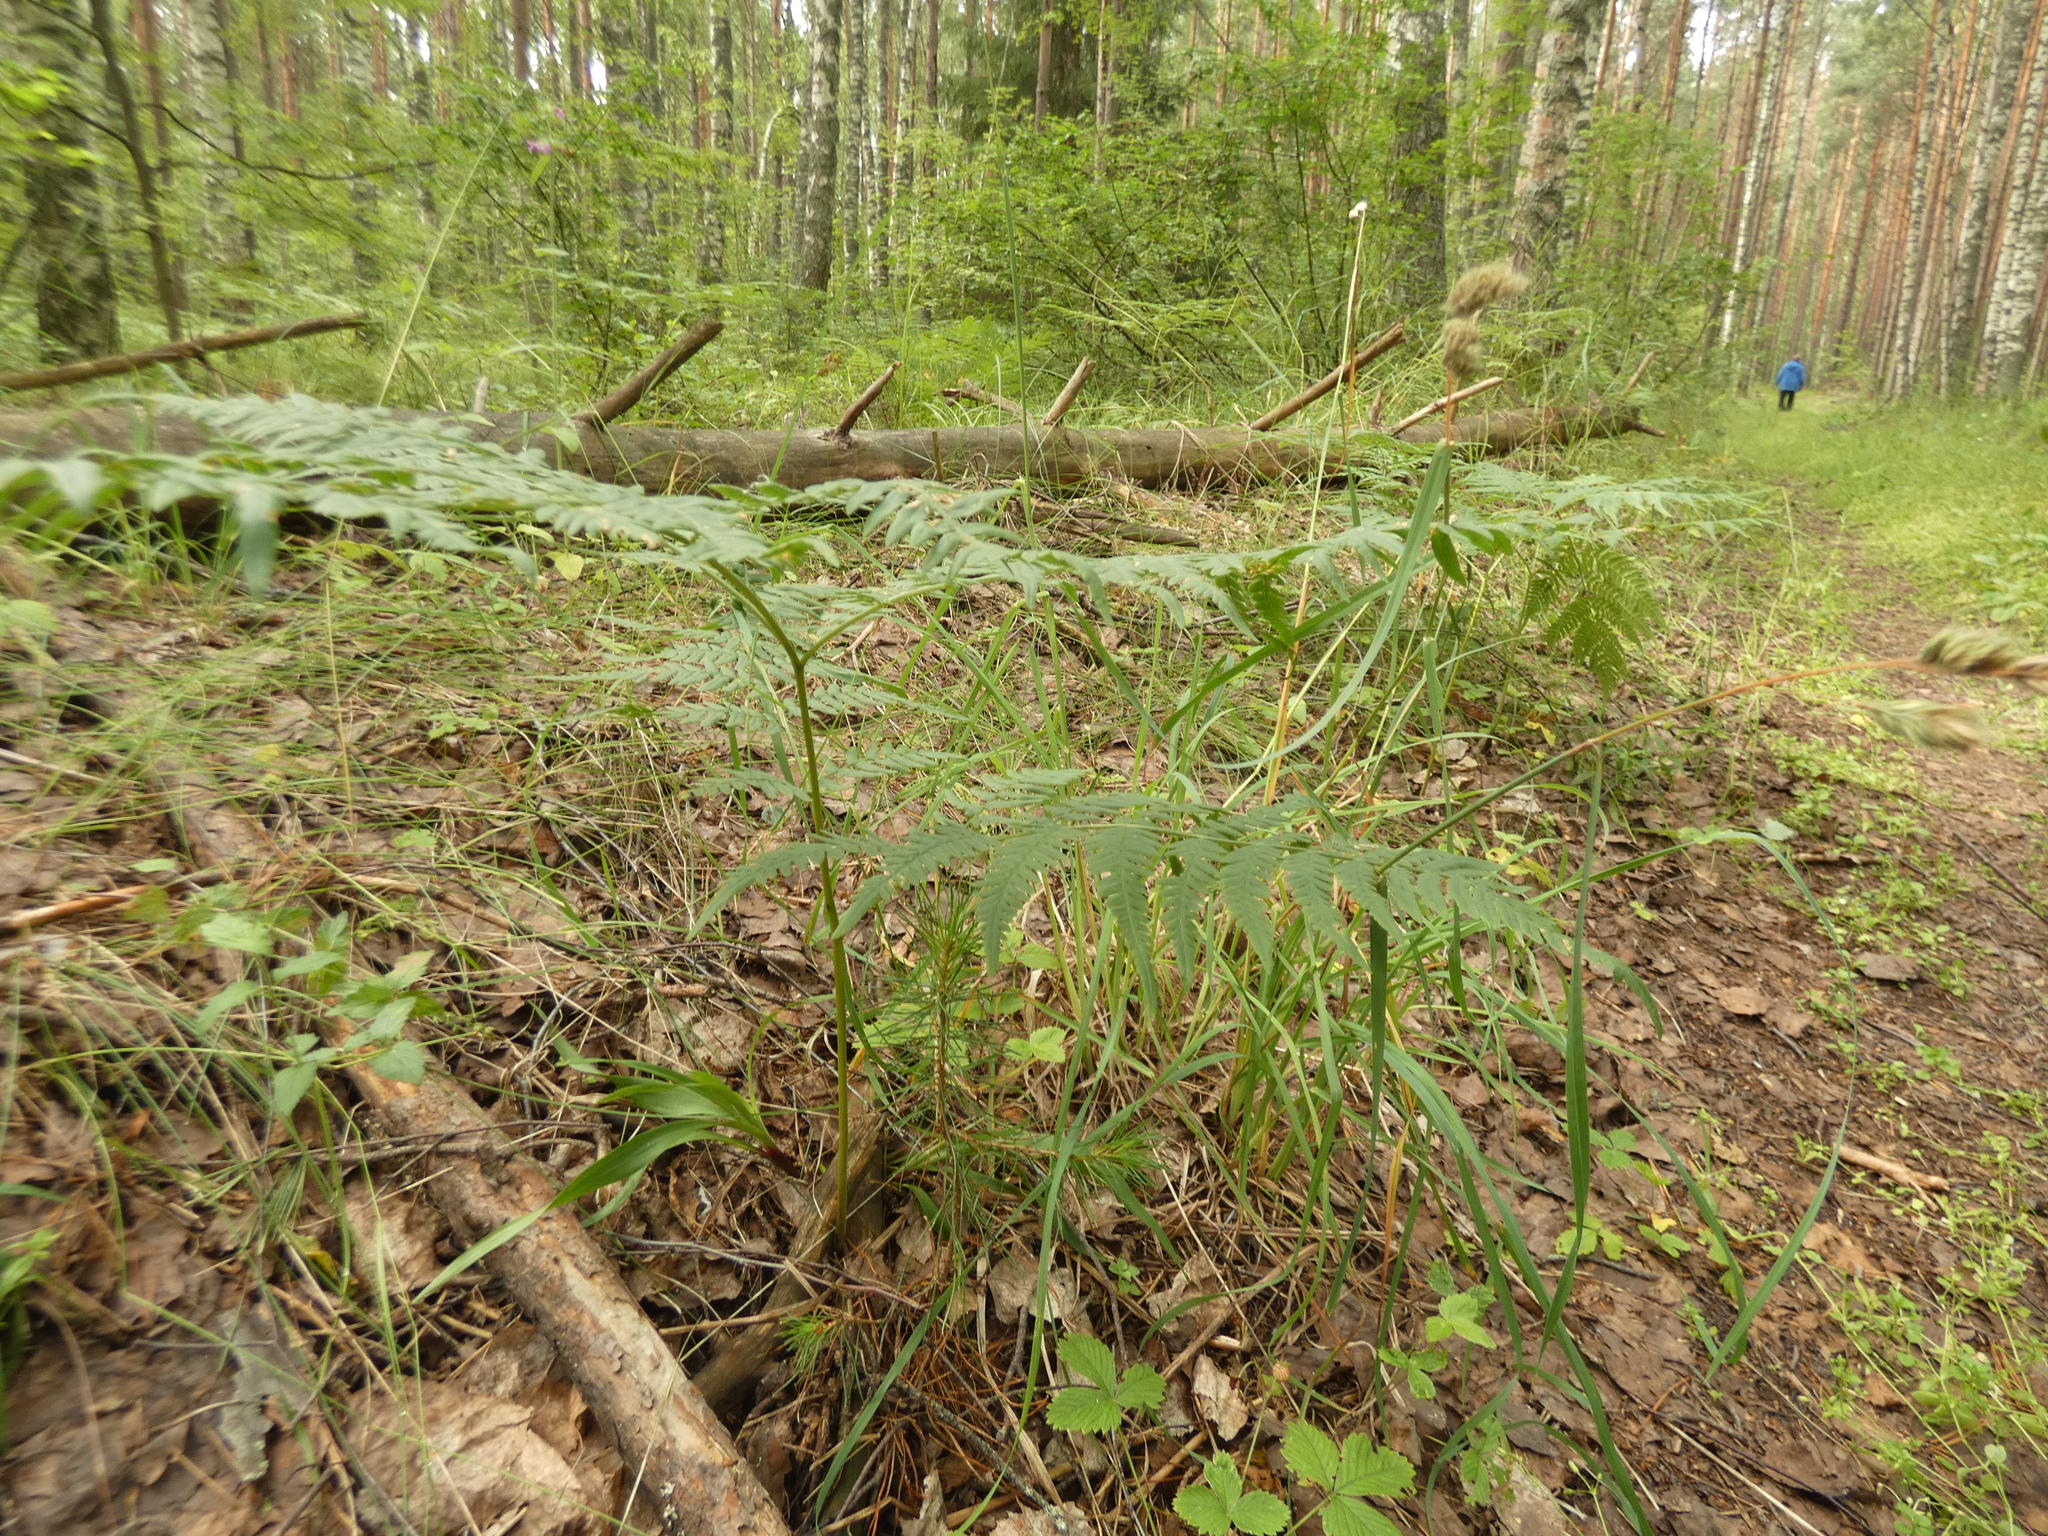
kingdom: Plantae
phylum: Tracheophyta
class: Polypodiopsida
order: Polypodiales
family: Dennstaedtiaceae
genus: Pteridium
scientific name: Pteridium aquilinum
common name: Bracken
